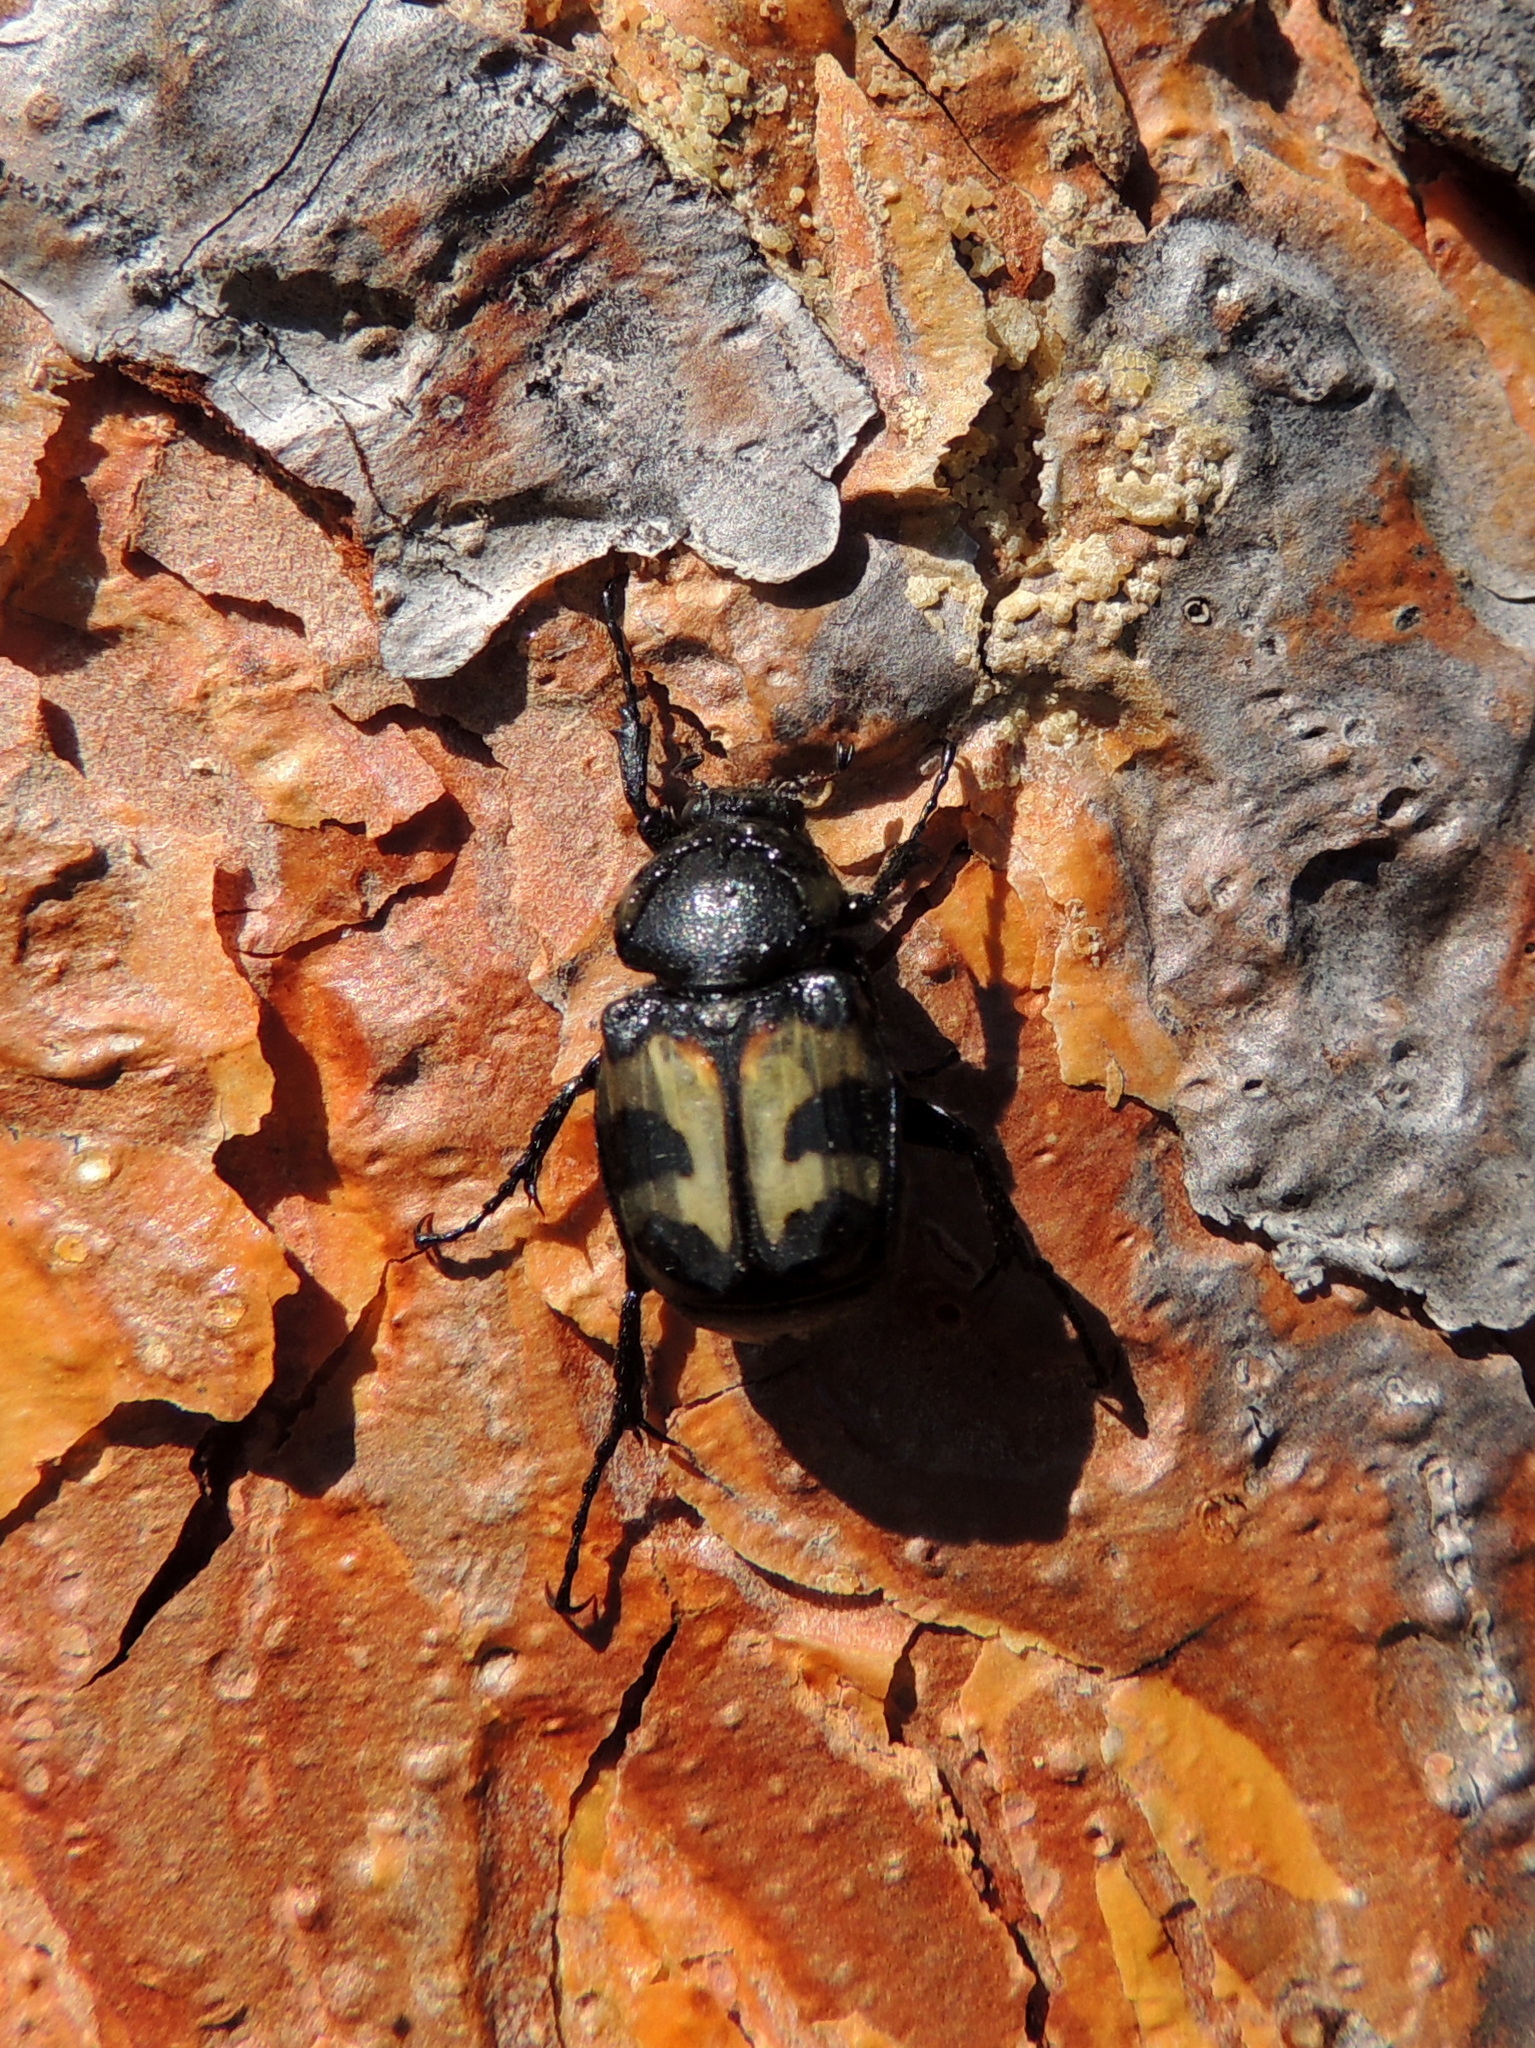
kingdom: Animalia
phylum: Arthropoda
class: Insecta
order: Coleoptera
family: Scarabaeidae
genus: Trichius
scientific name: Trichius fasciatus
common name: Bee beetle
